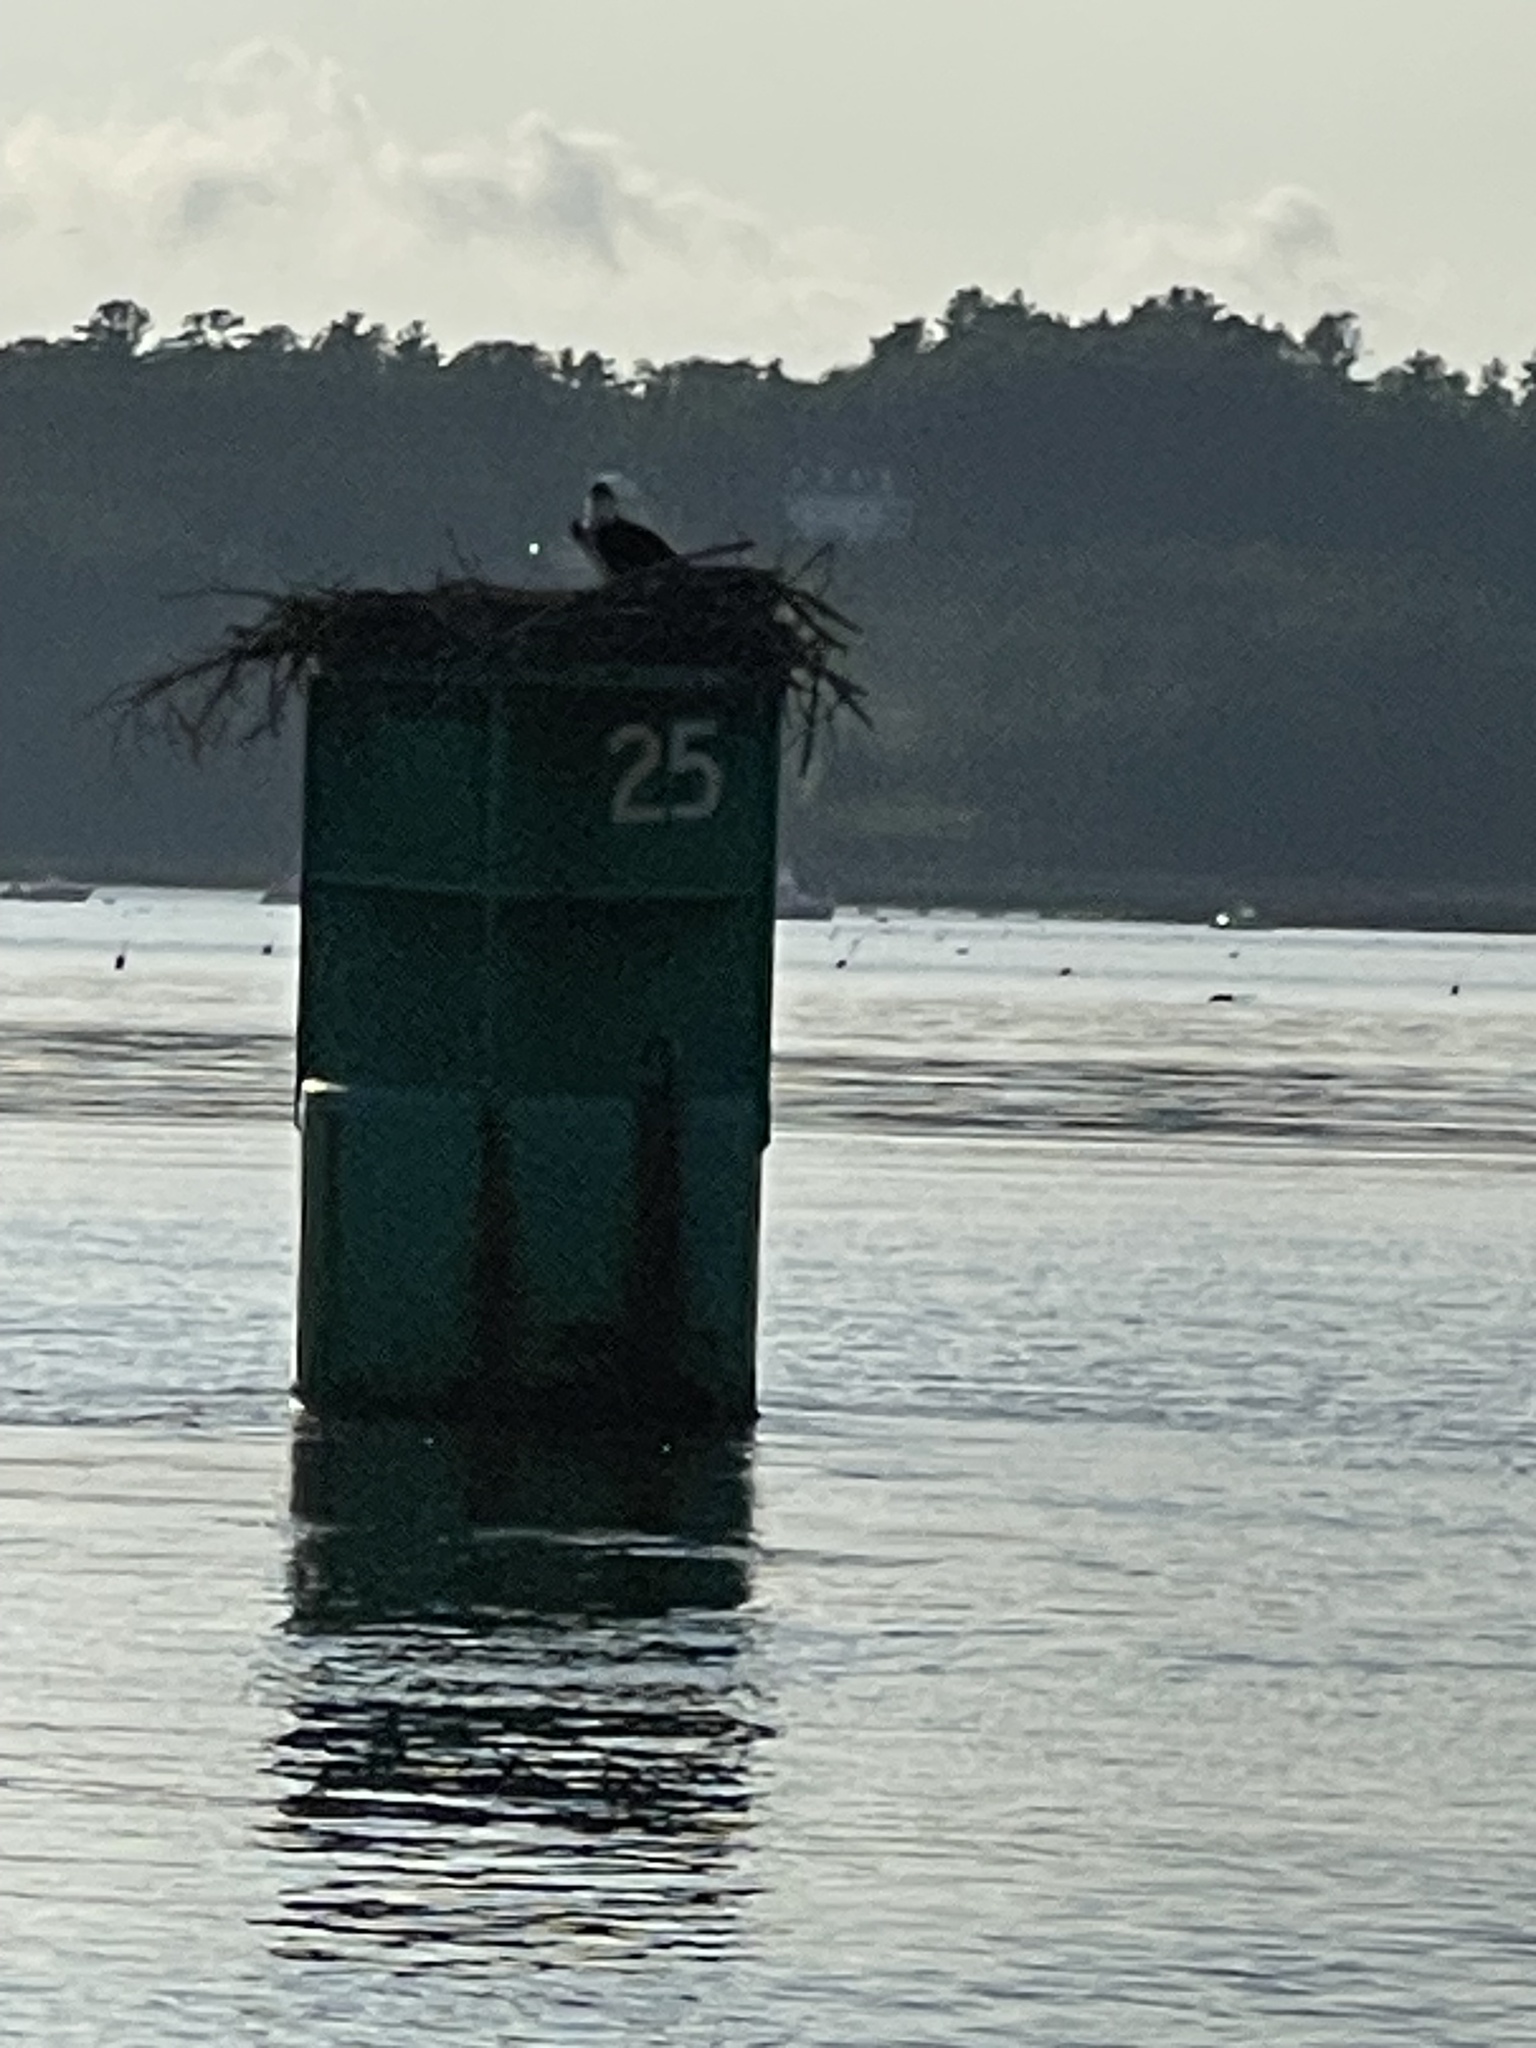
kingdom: Animalia
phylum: Chordata
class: Aves
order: Accipitriformes
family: Pandionidae
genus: Pandion
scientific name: Pandion haliaetus
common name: Osprey
